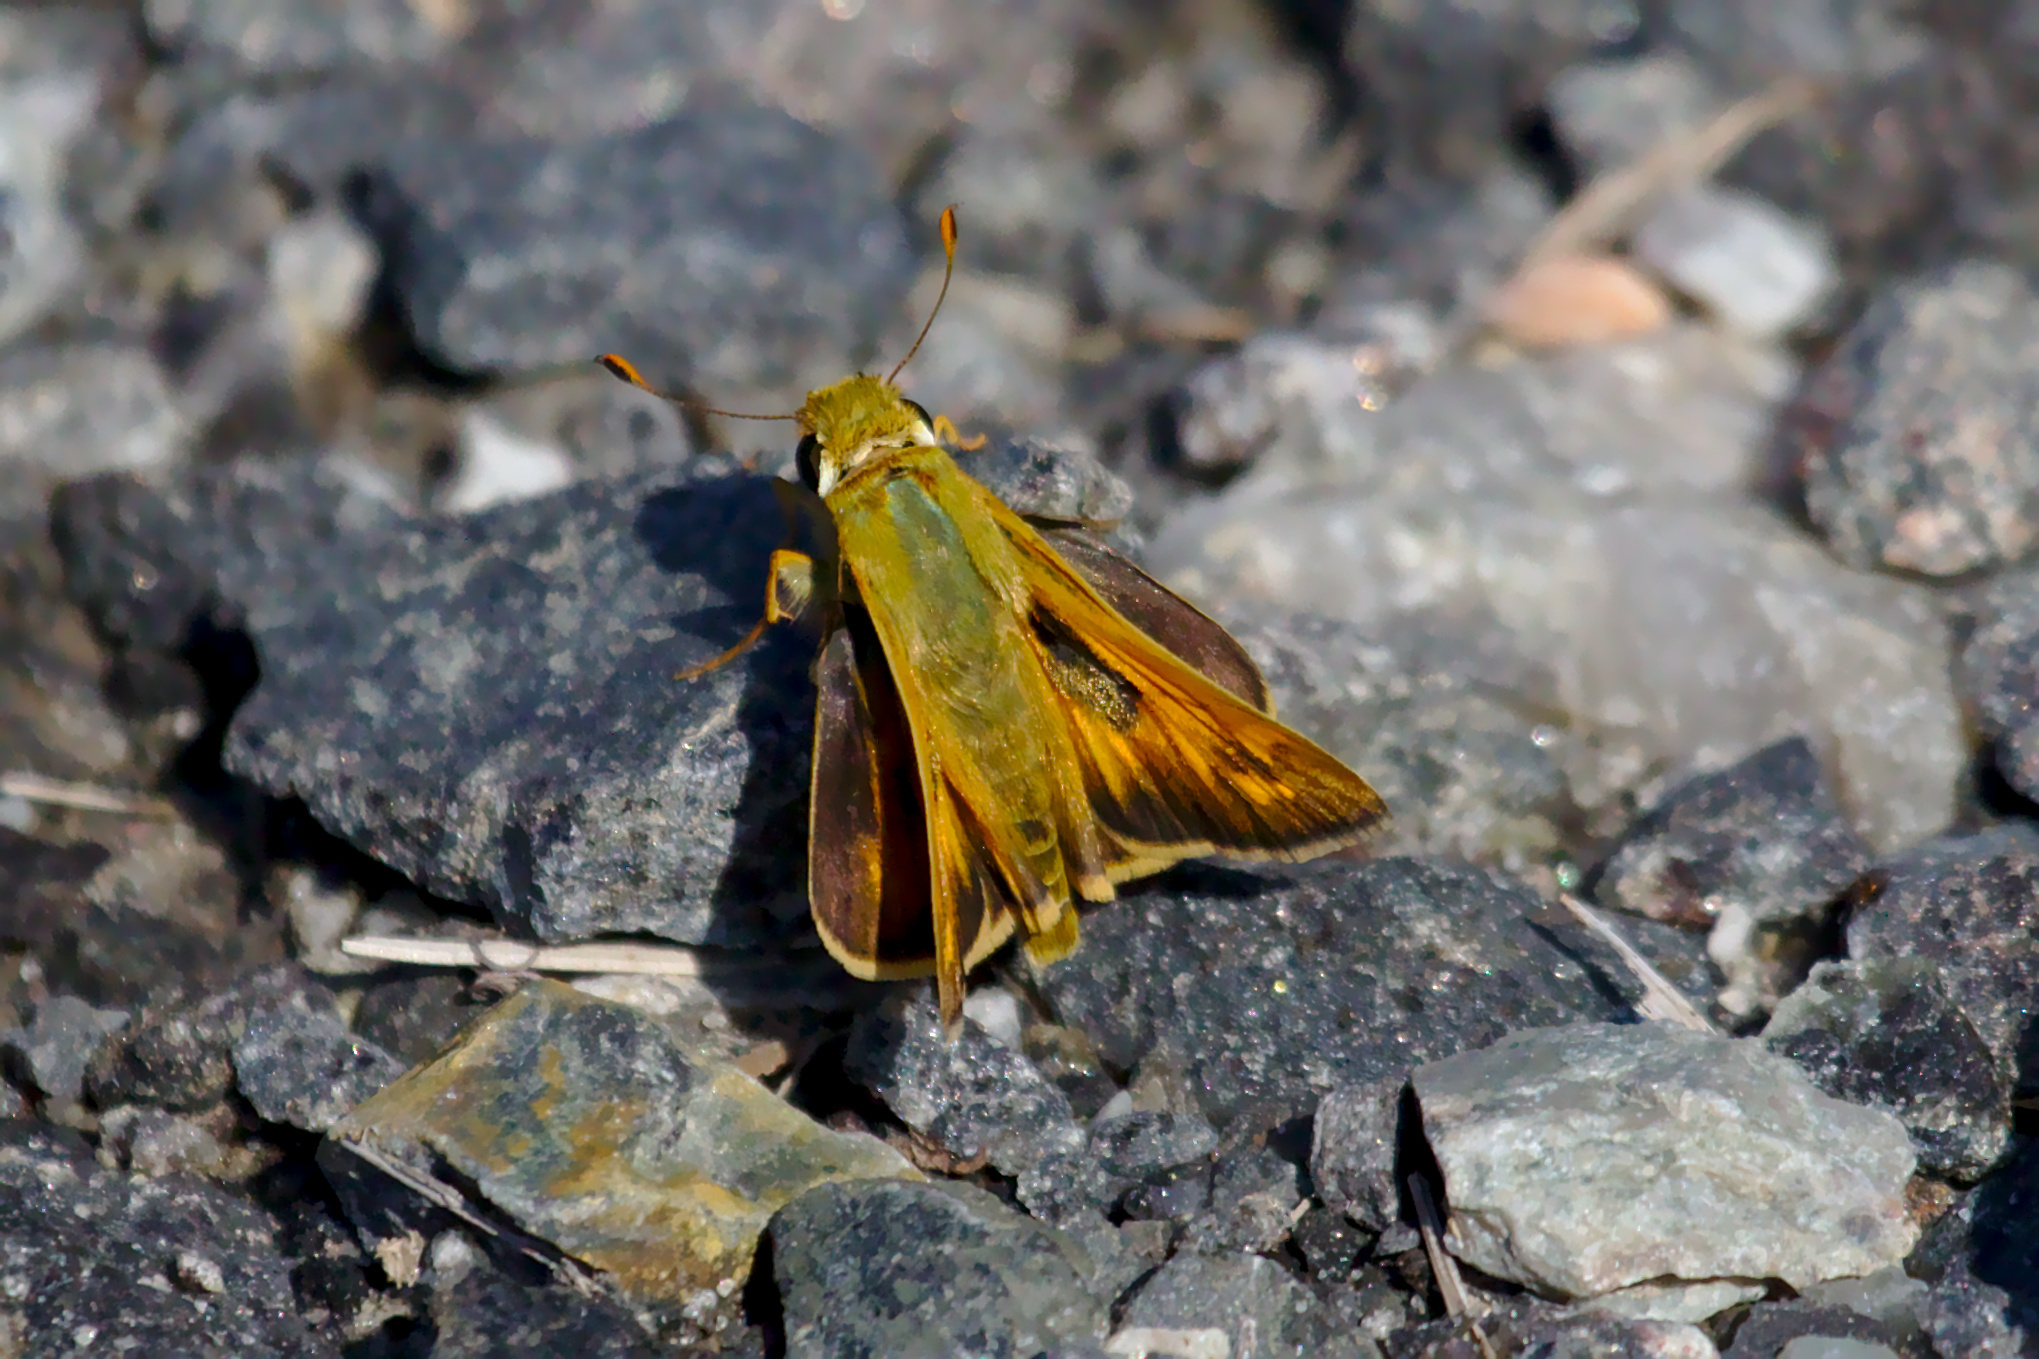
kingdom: Animalia
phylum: Arthropoda
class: Insecta
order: Lepidoptera
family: Hesperiidae
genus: Atalopedes
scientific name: Atalopedes
